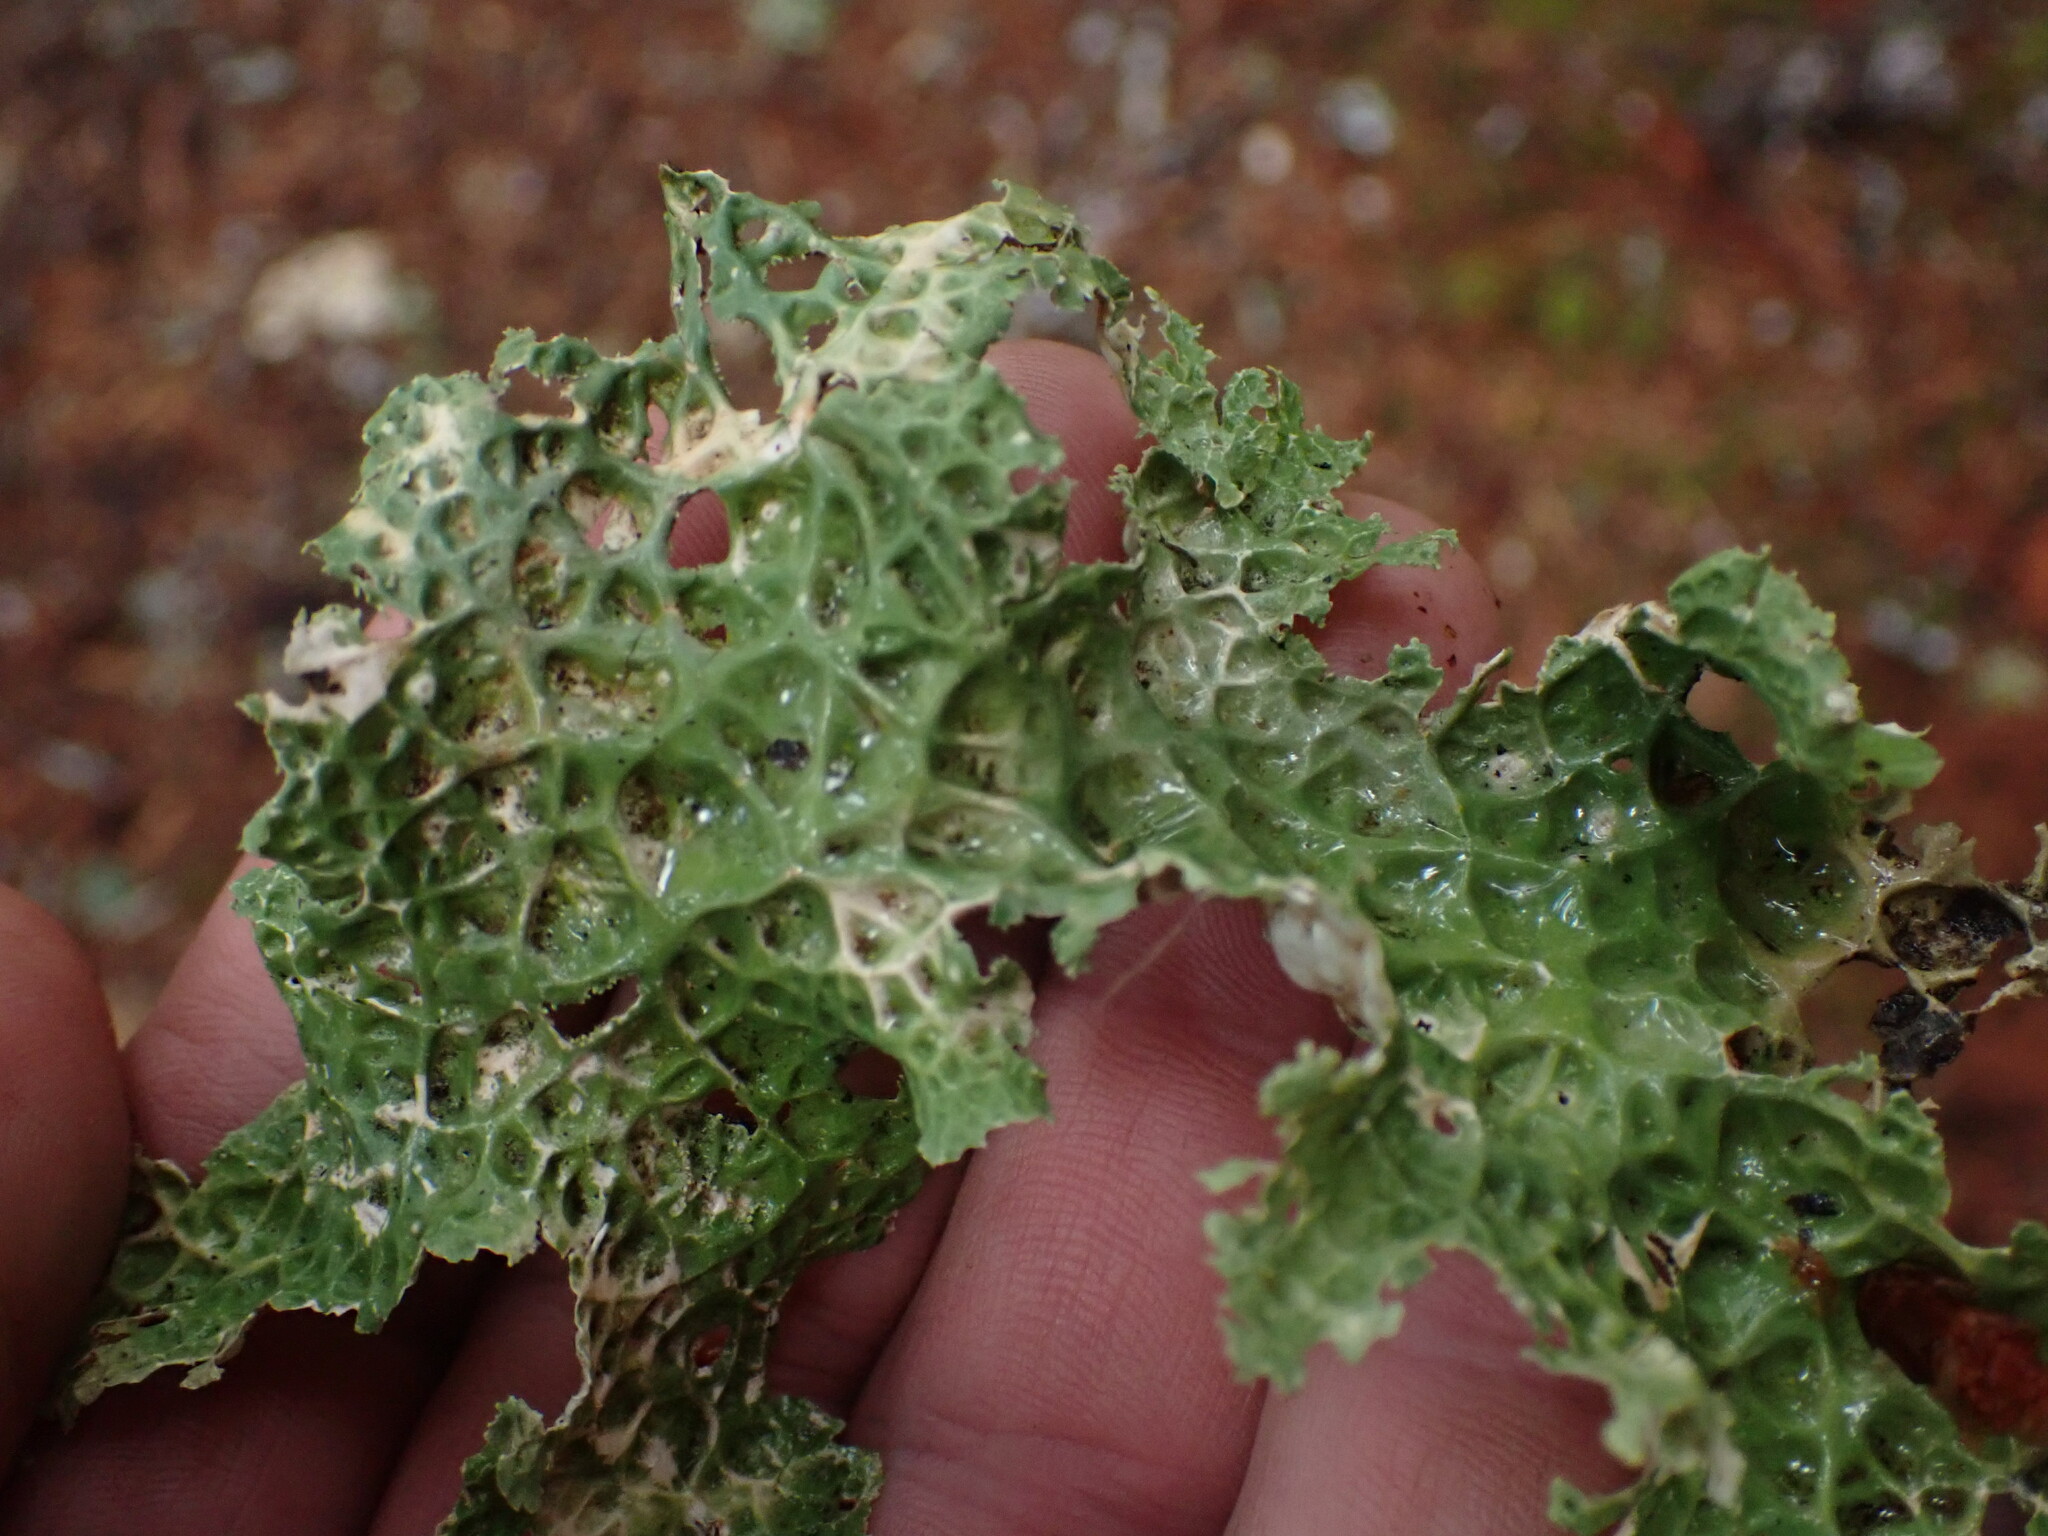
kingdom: Fungi
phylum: Ascomycota
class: Lecanoromycetes
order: Peltigerales
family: Lobariaceae
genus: Lobaria
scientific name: Lobaria oregana
